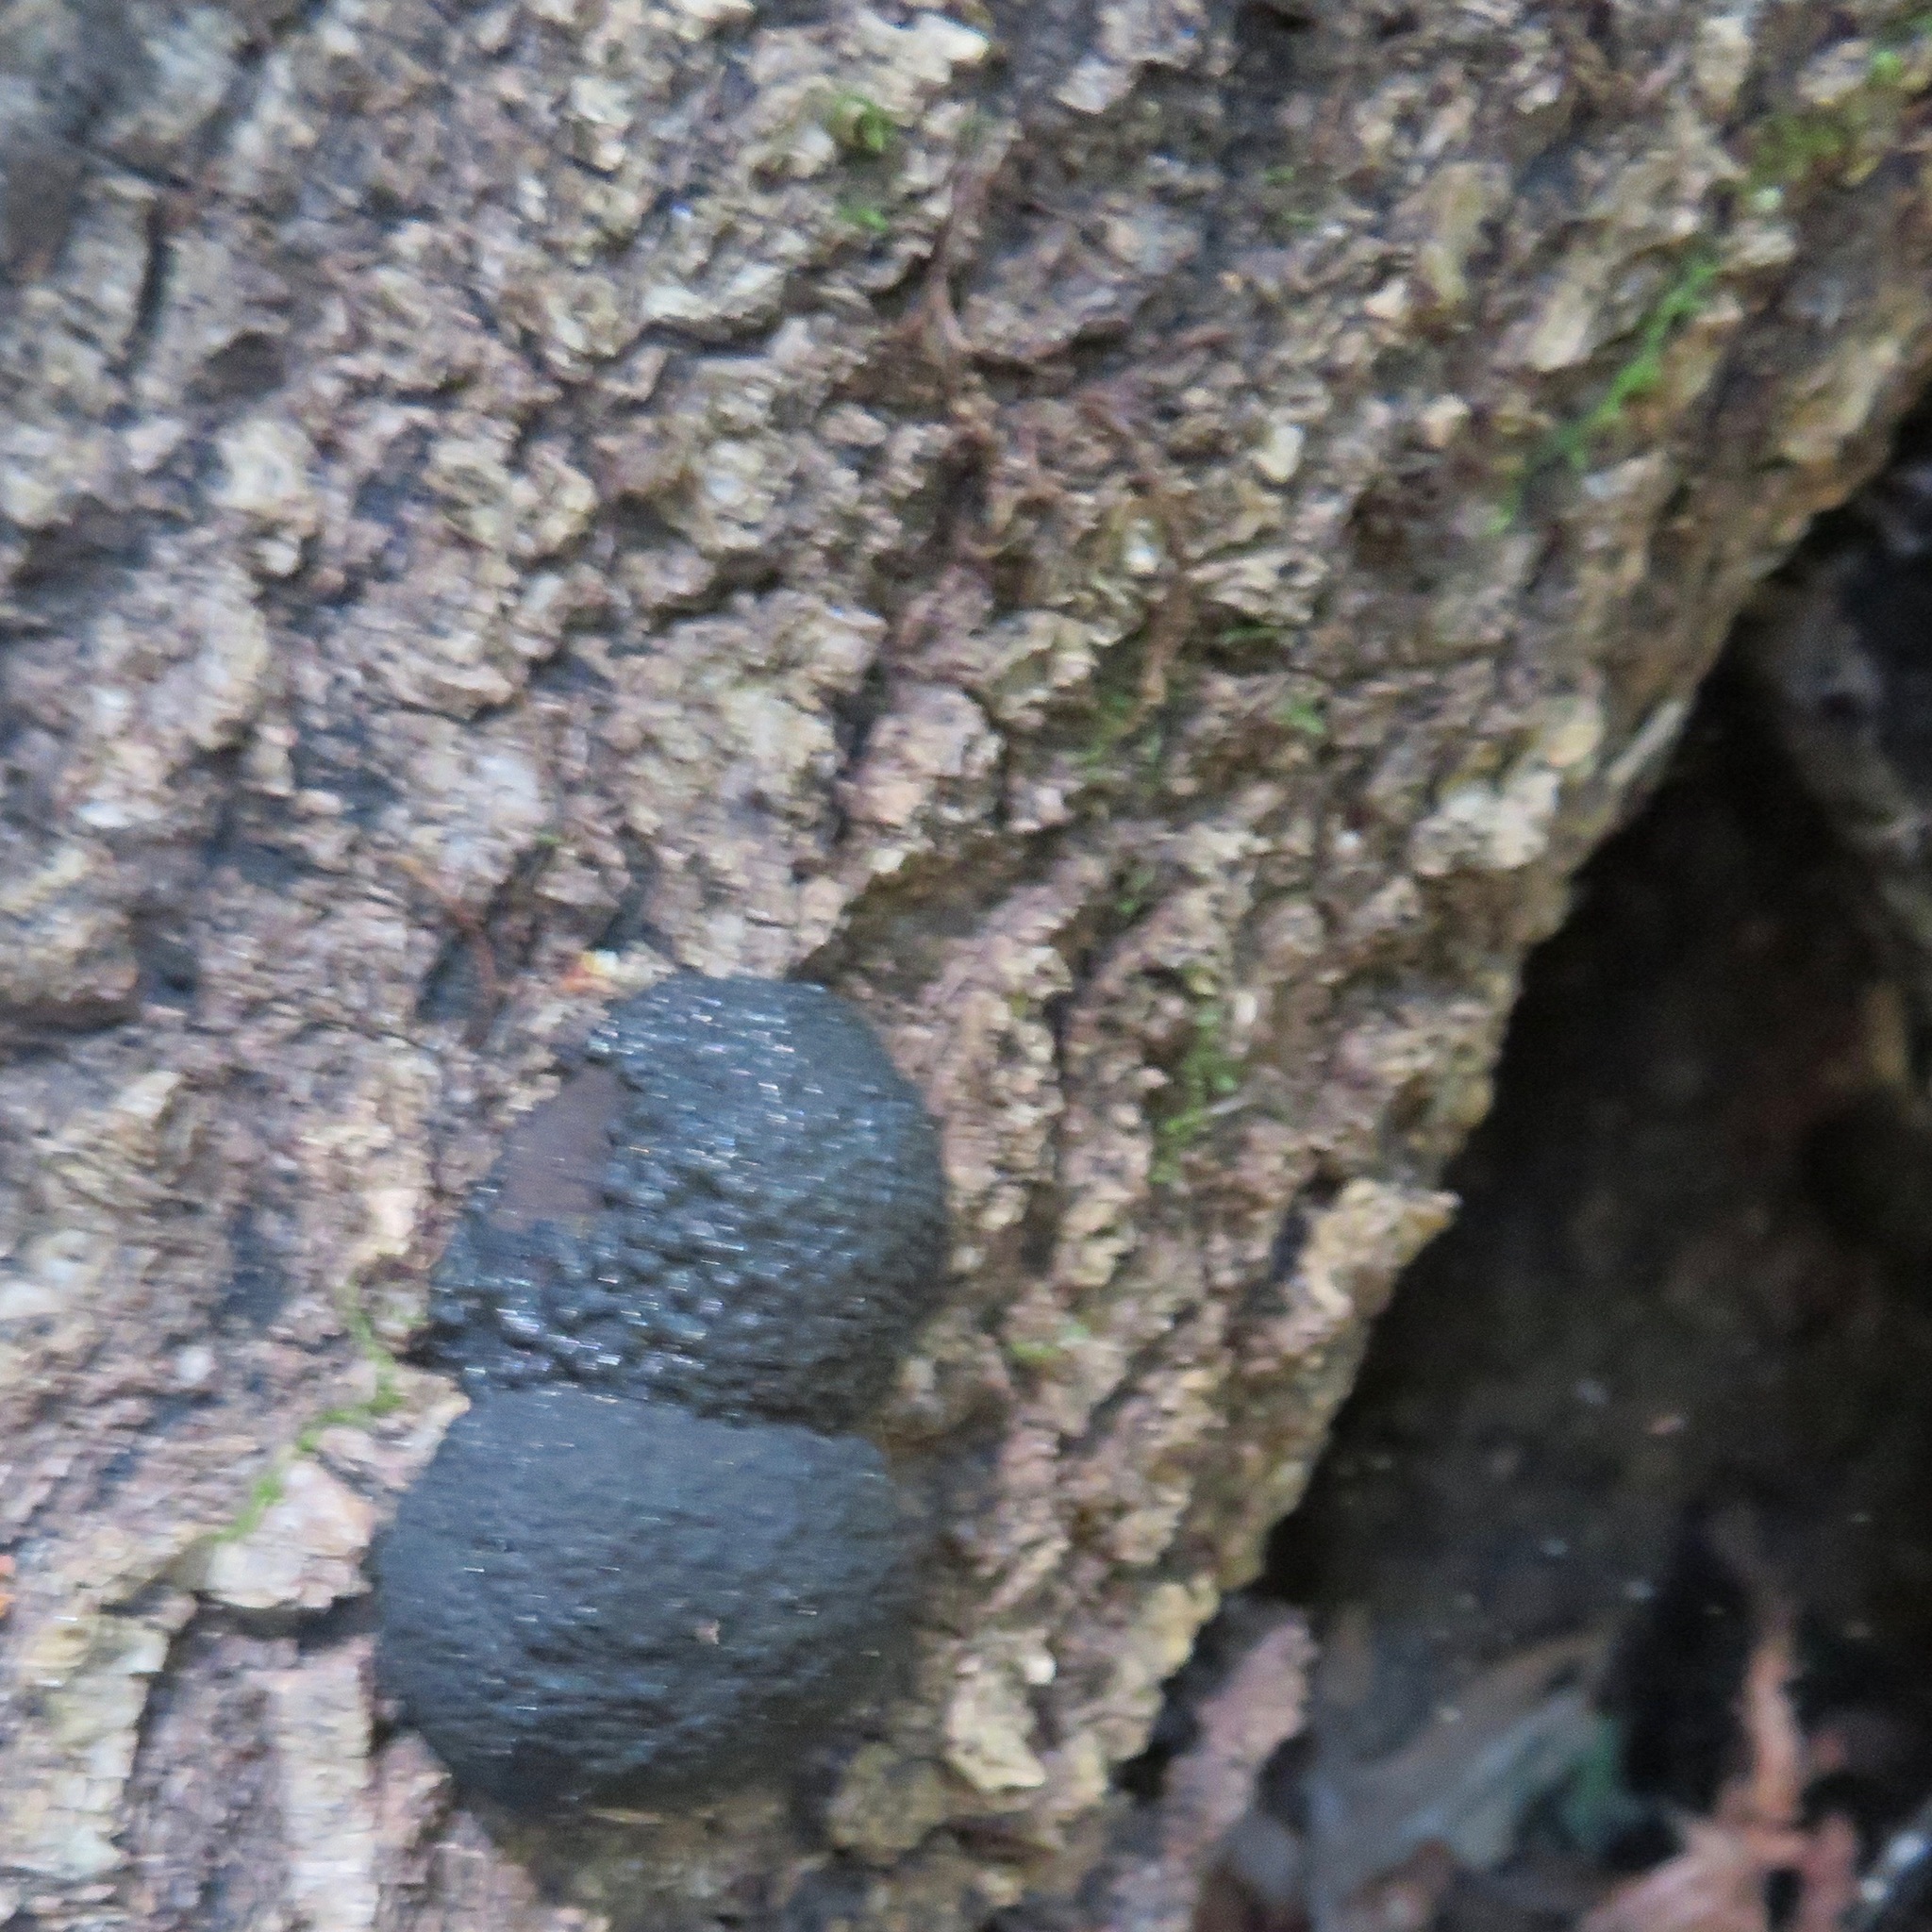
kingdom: Fungi
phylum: Ascomycota
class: Sordariomycetes
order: Xylariales
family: Hypoxylaceae
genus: Annulohypoxylon
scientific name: Annulohypoxylon thouarsianum
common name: Cramp balls
